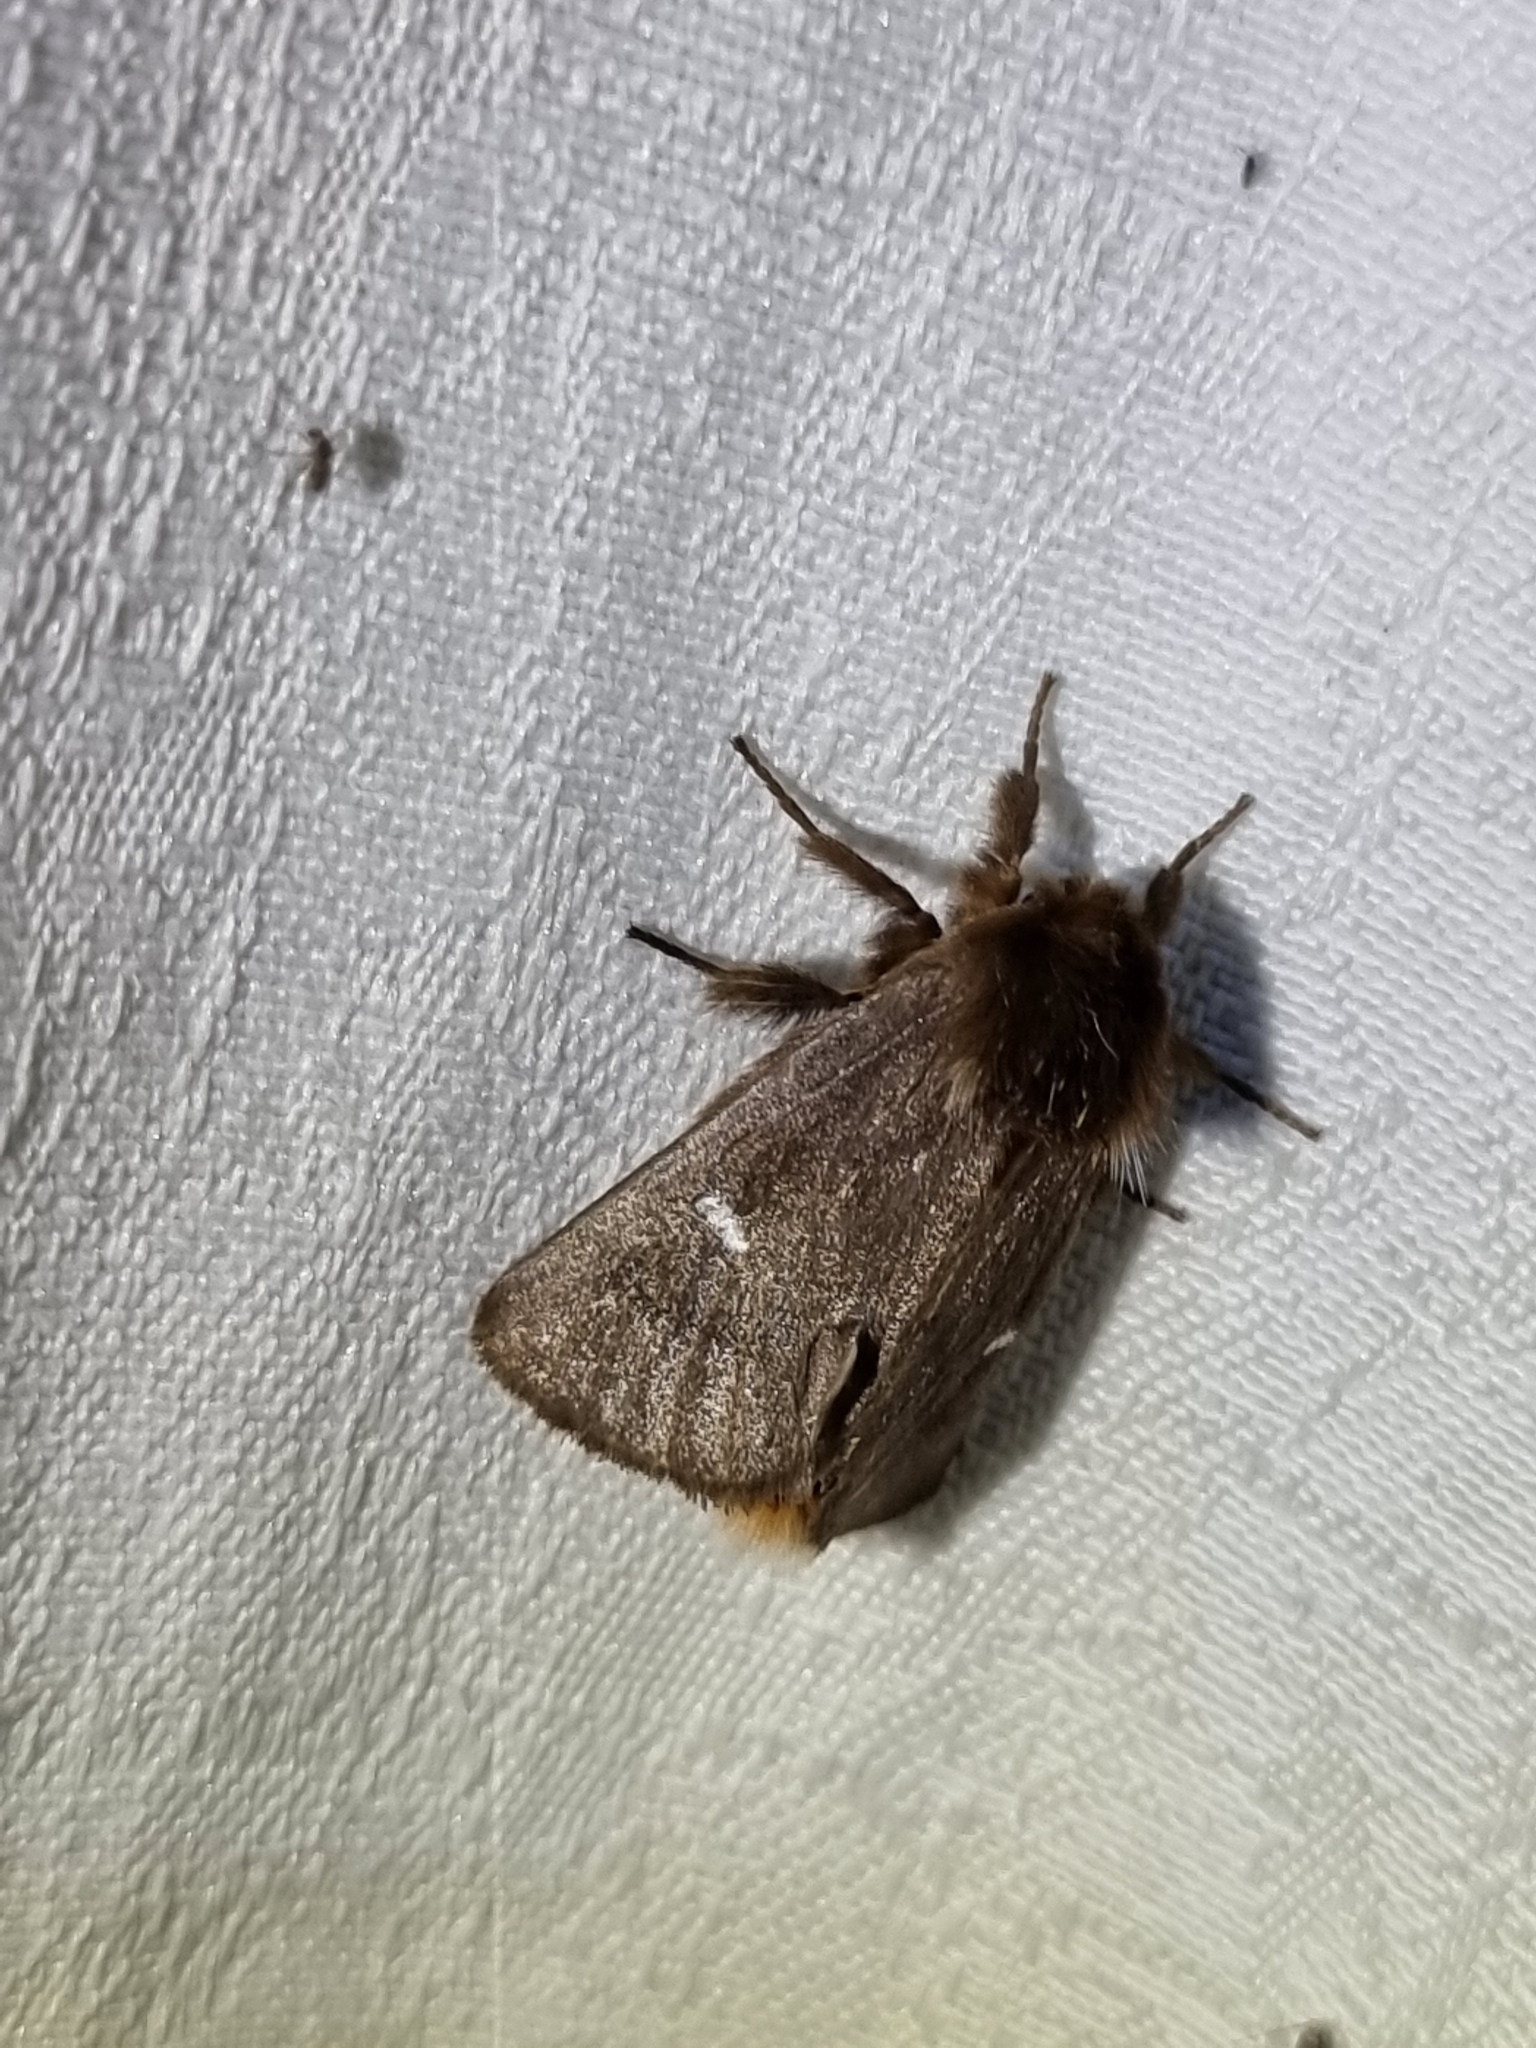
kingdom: Animalia
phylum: Arthropoda
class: Insecta
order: Lepidoptera
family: Notodontidae
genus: Ochrogaster
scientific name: Ochrogaster lunifer
